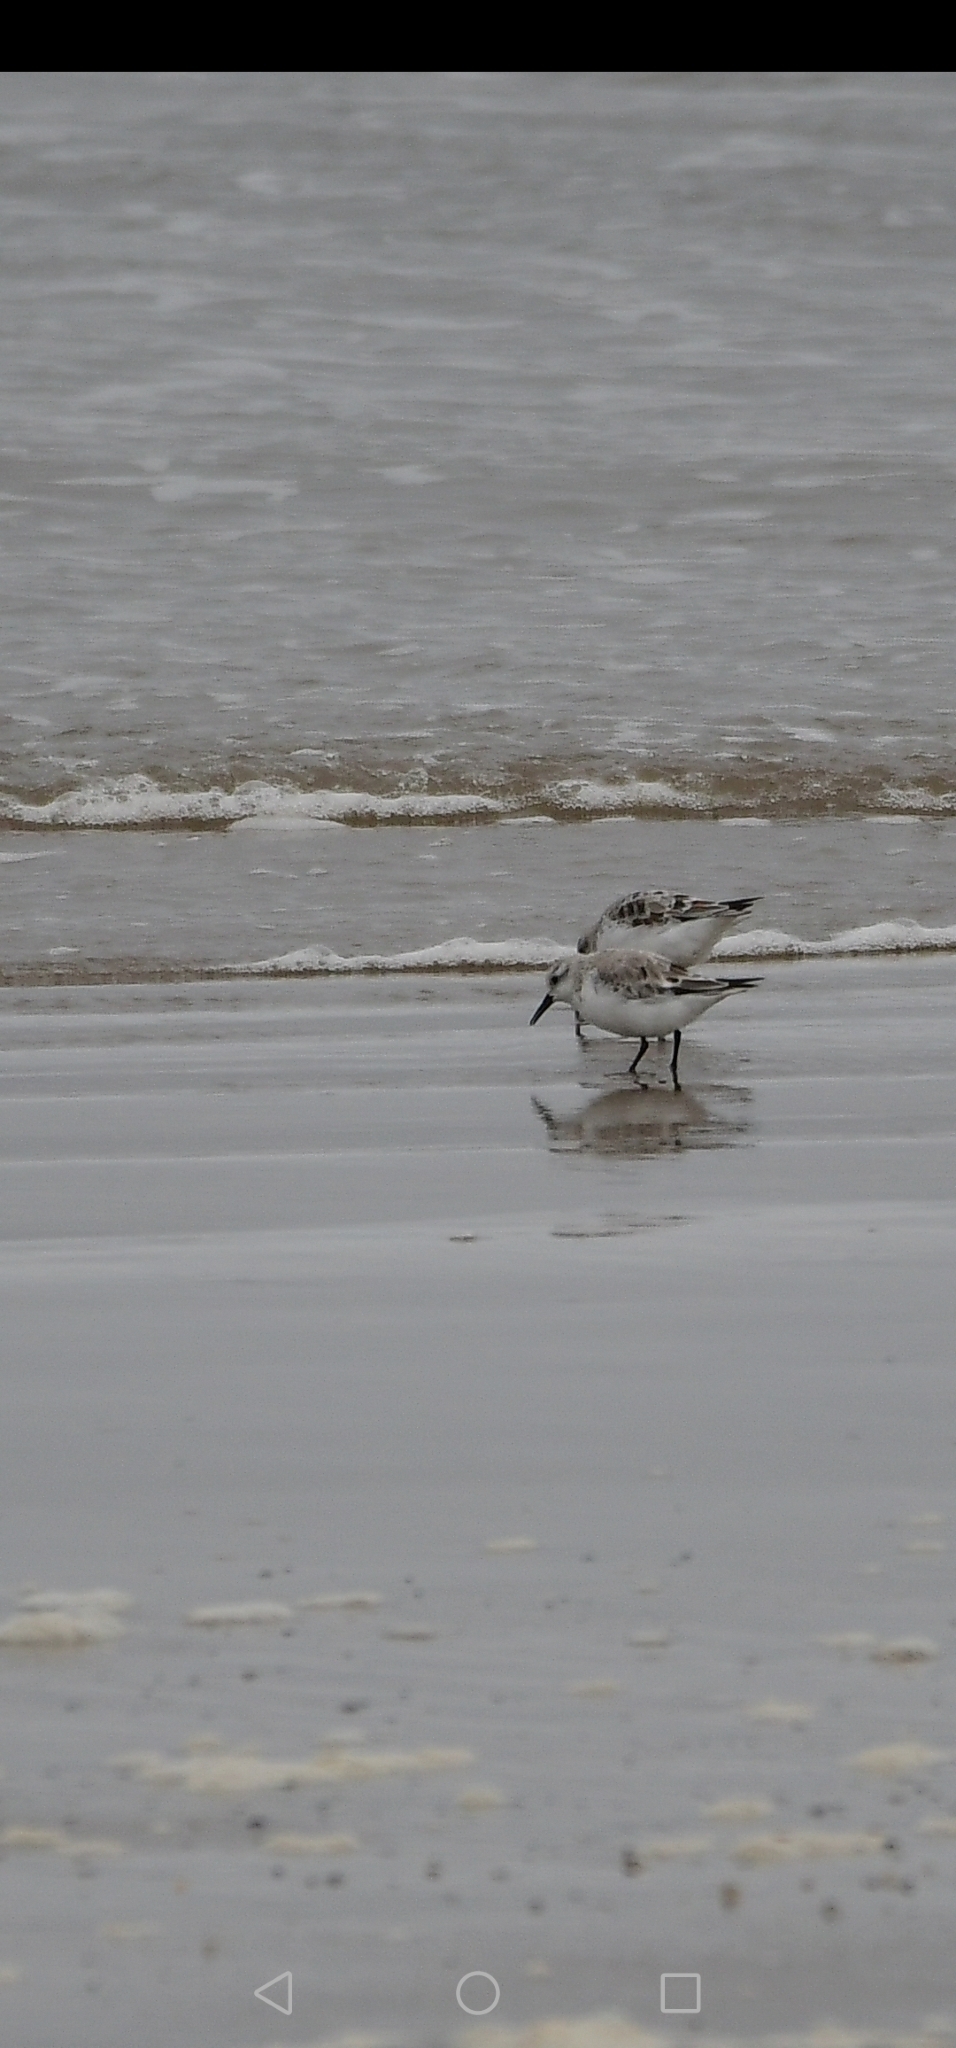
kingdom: Animalia
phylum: Chordata
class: Aves
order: Charadriiformes
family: Scolopacidae
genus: Calidris
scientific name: Calidris alba
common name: Sanderling
